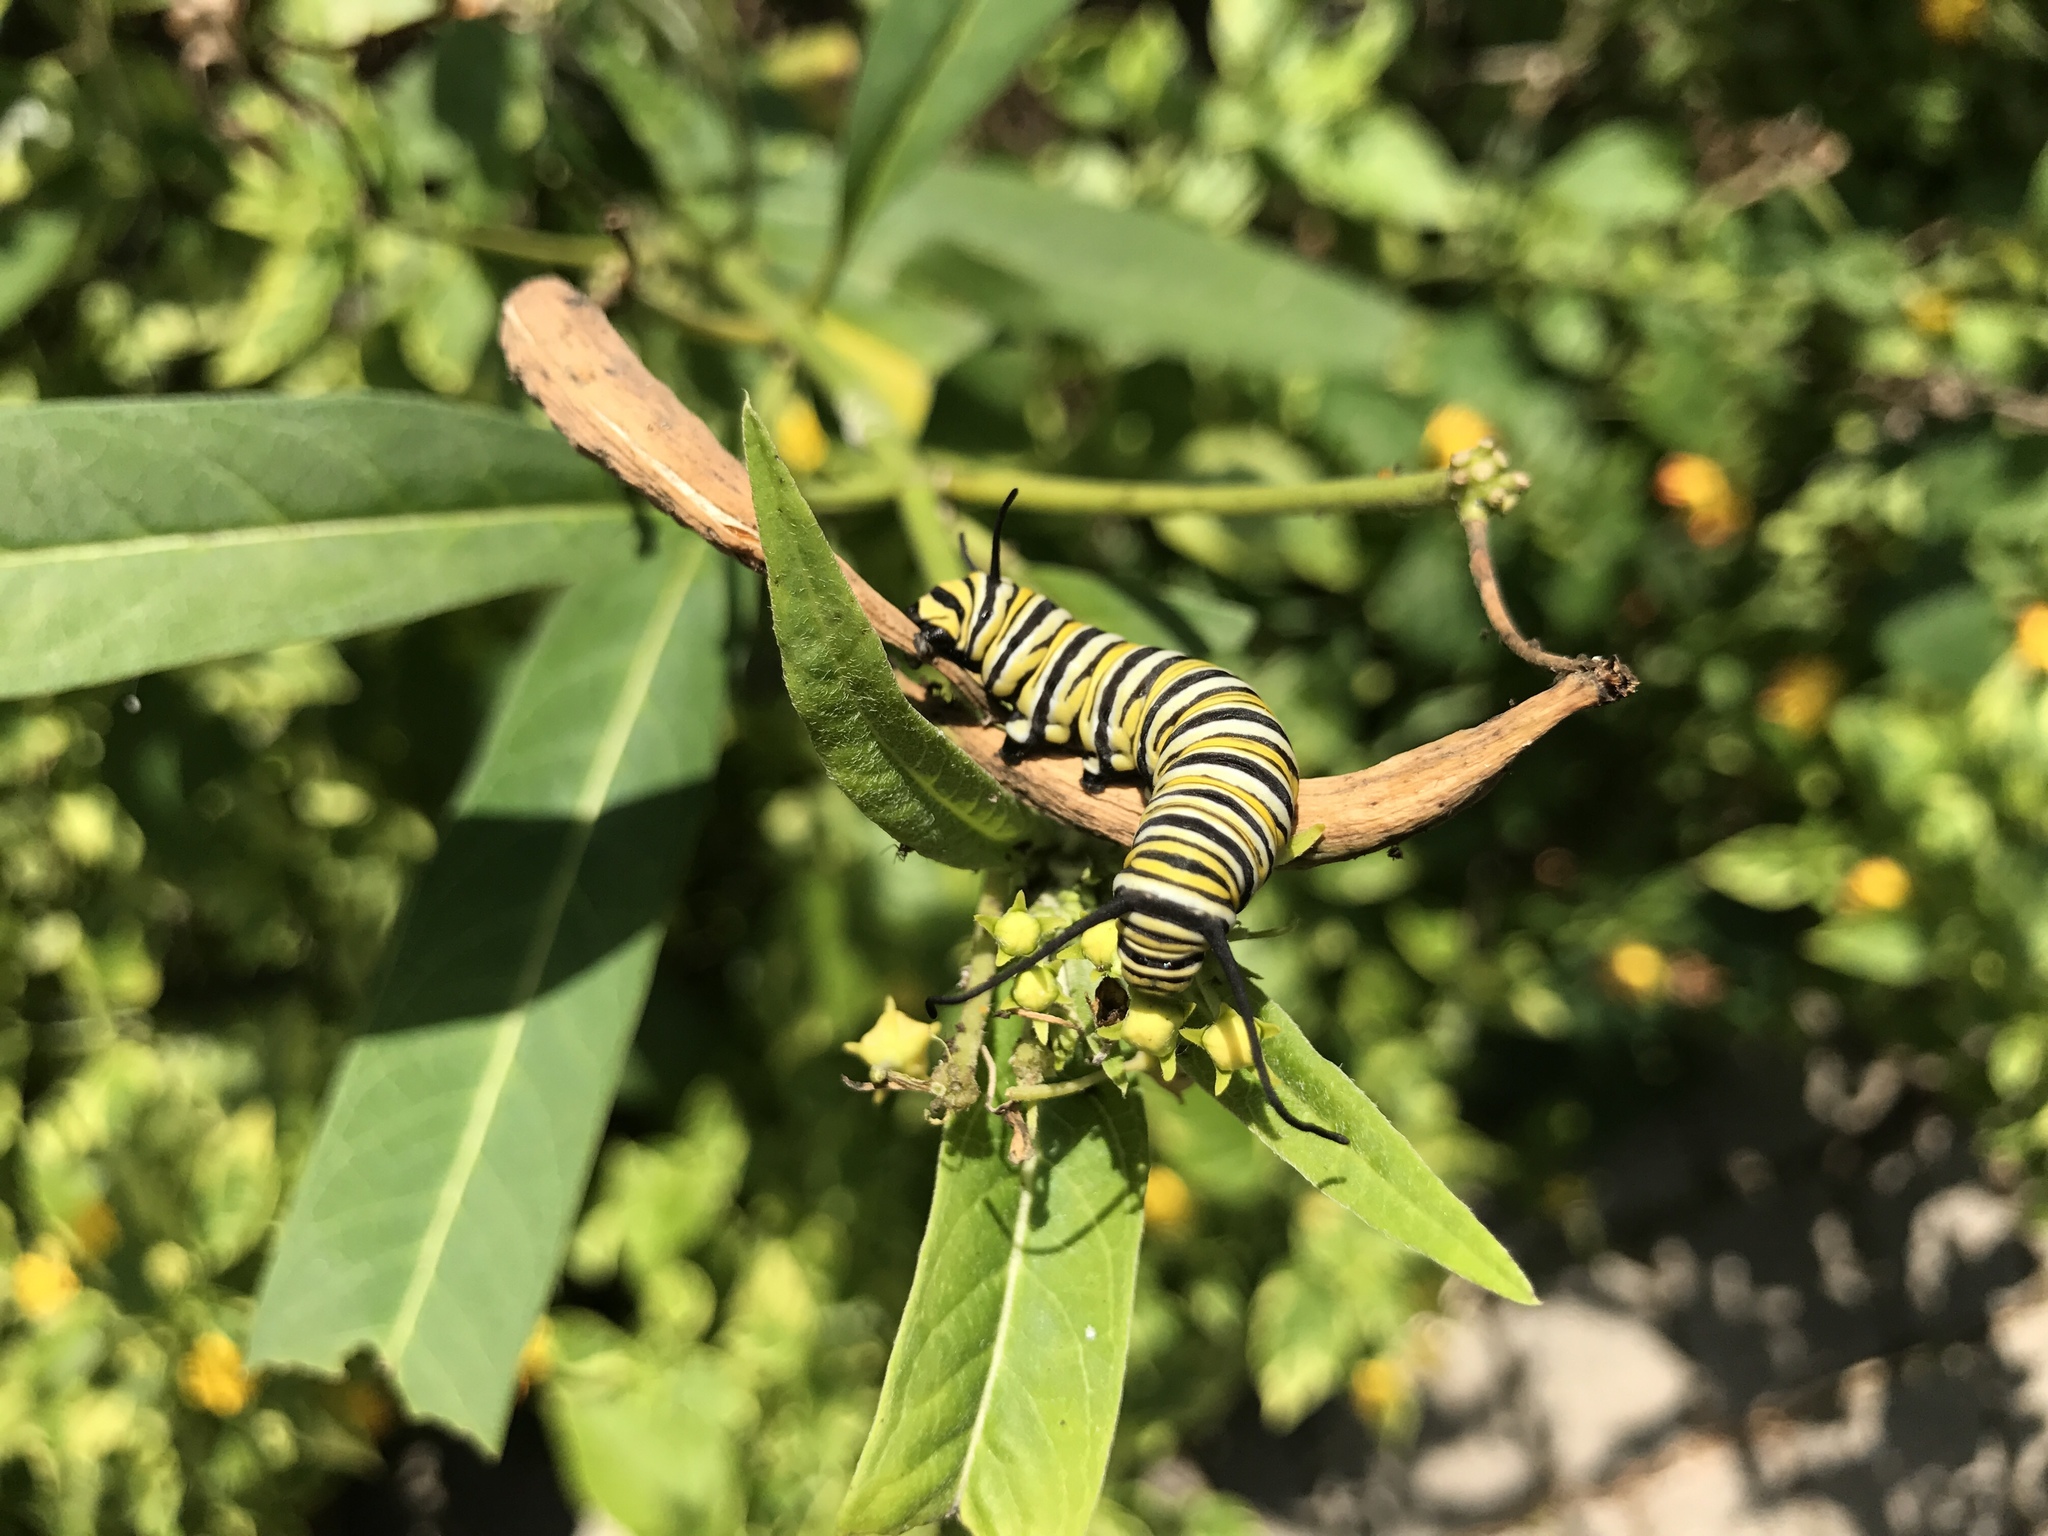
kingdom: Animalia
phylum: Arthropoda
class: Insecta
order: Lepidoptera
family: Nymphalidae
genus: Danaus
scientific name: Danaus plexippus
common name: Monarch
